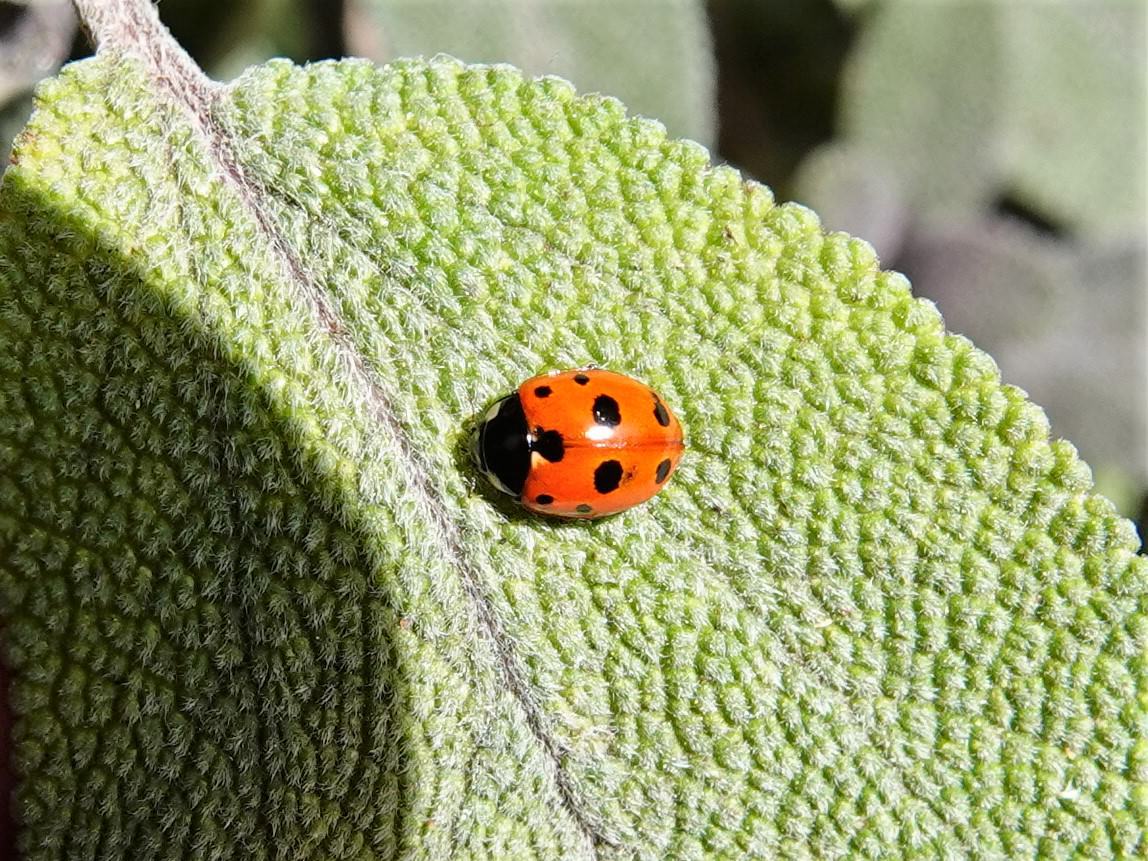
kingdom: Animalia
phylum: Arthropoda
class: Insecta
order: Coleoptera
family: Coccinellidae
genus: Coccinella
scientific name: Coccinella undecimpunctata
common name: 11-spot ladybird
